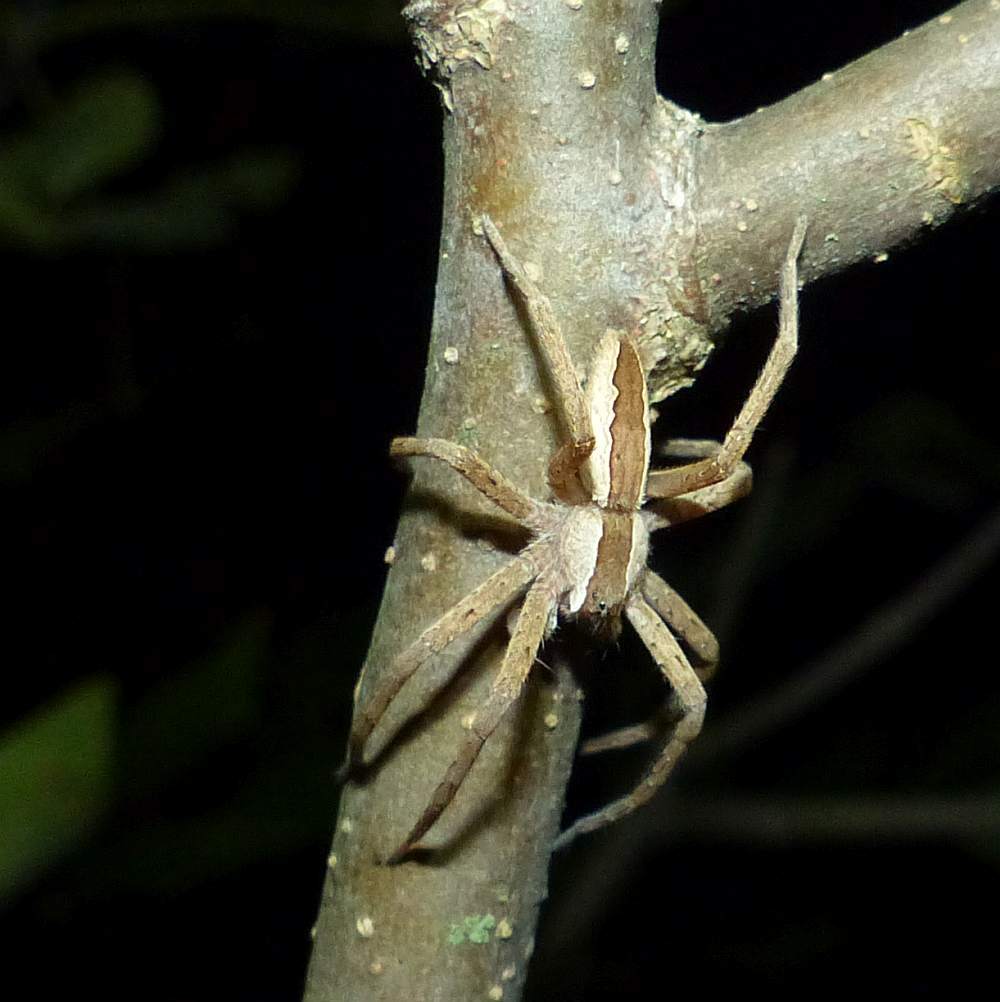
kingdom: Animalia
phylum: Arthropoda
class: Arachnida
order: Araneae
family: Pisauridae
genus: Pisaurina
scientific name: Pisaurina mira
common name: American nursery web spider
